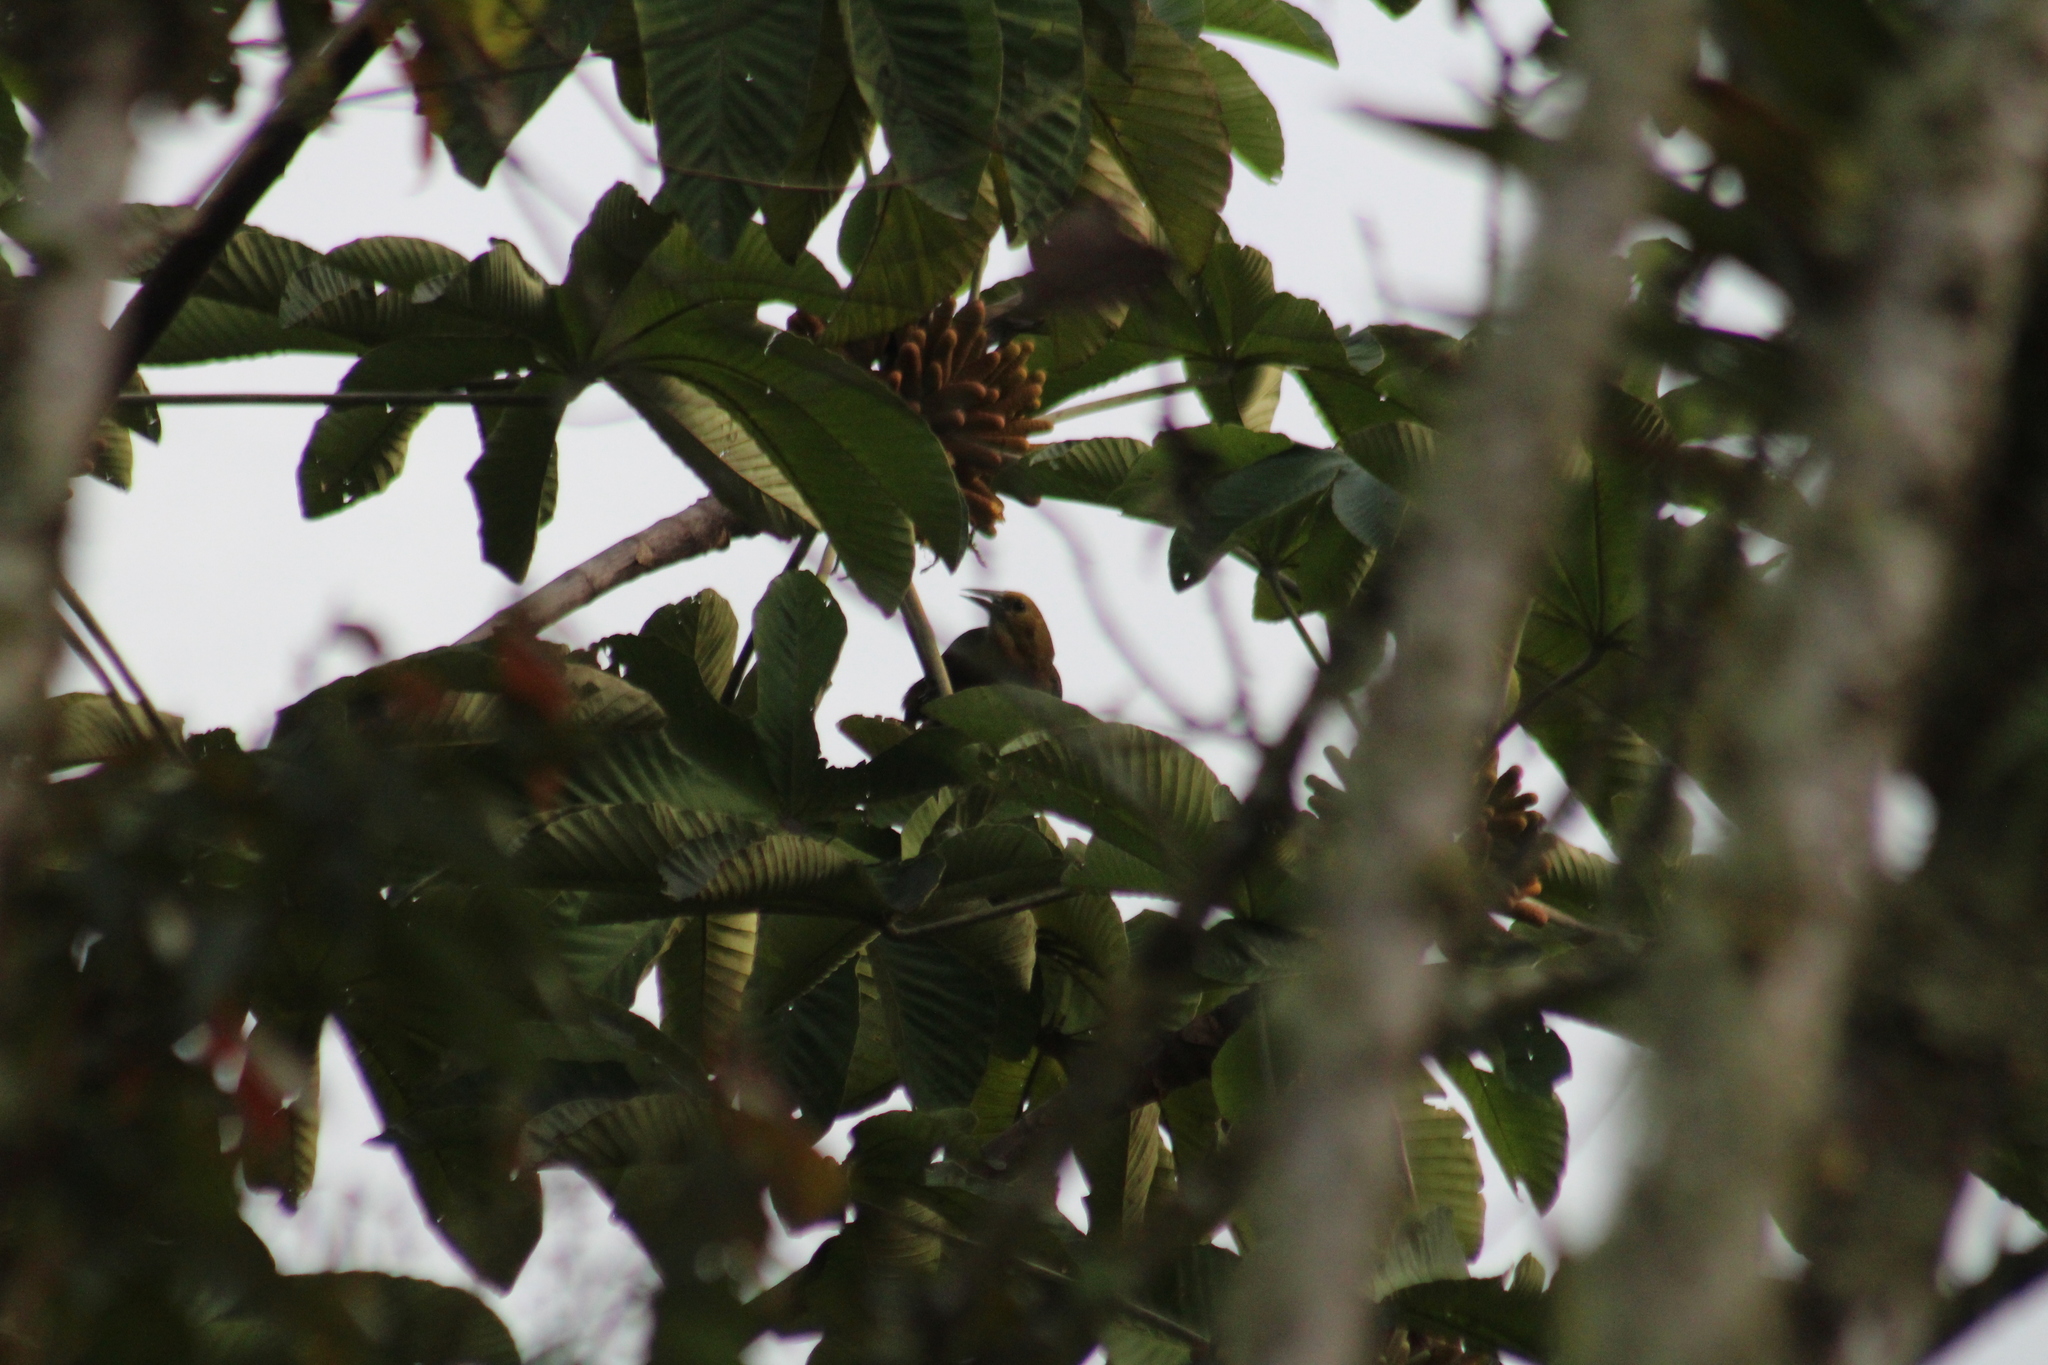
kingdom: Animalia
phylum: Chordata
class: Aves
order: Passeriformes
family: Icteridae
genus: Psarocolius
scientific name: Psarocolius angustifrons
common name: Russet-backed oropendola
